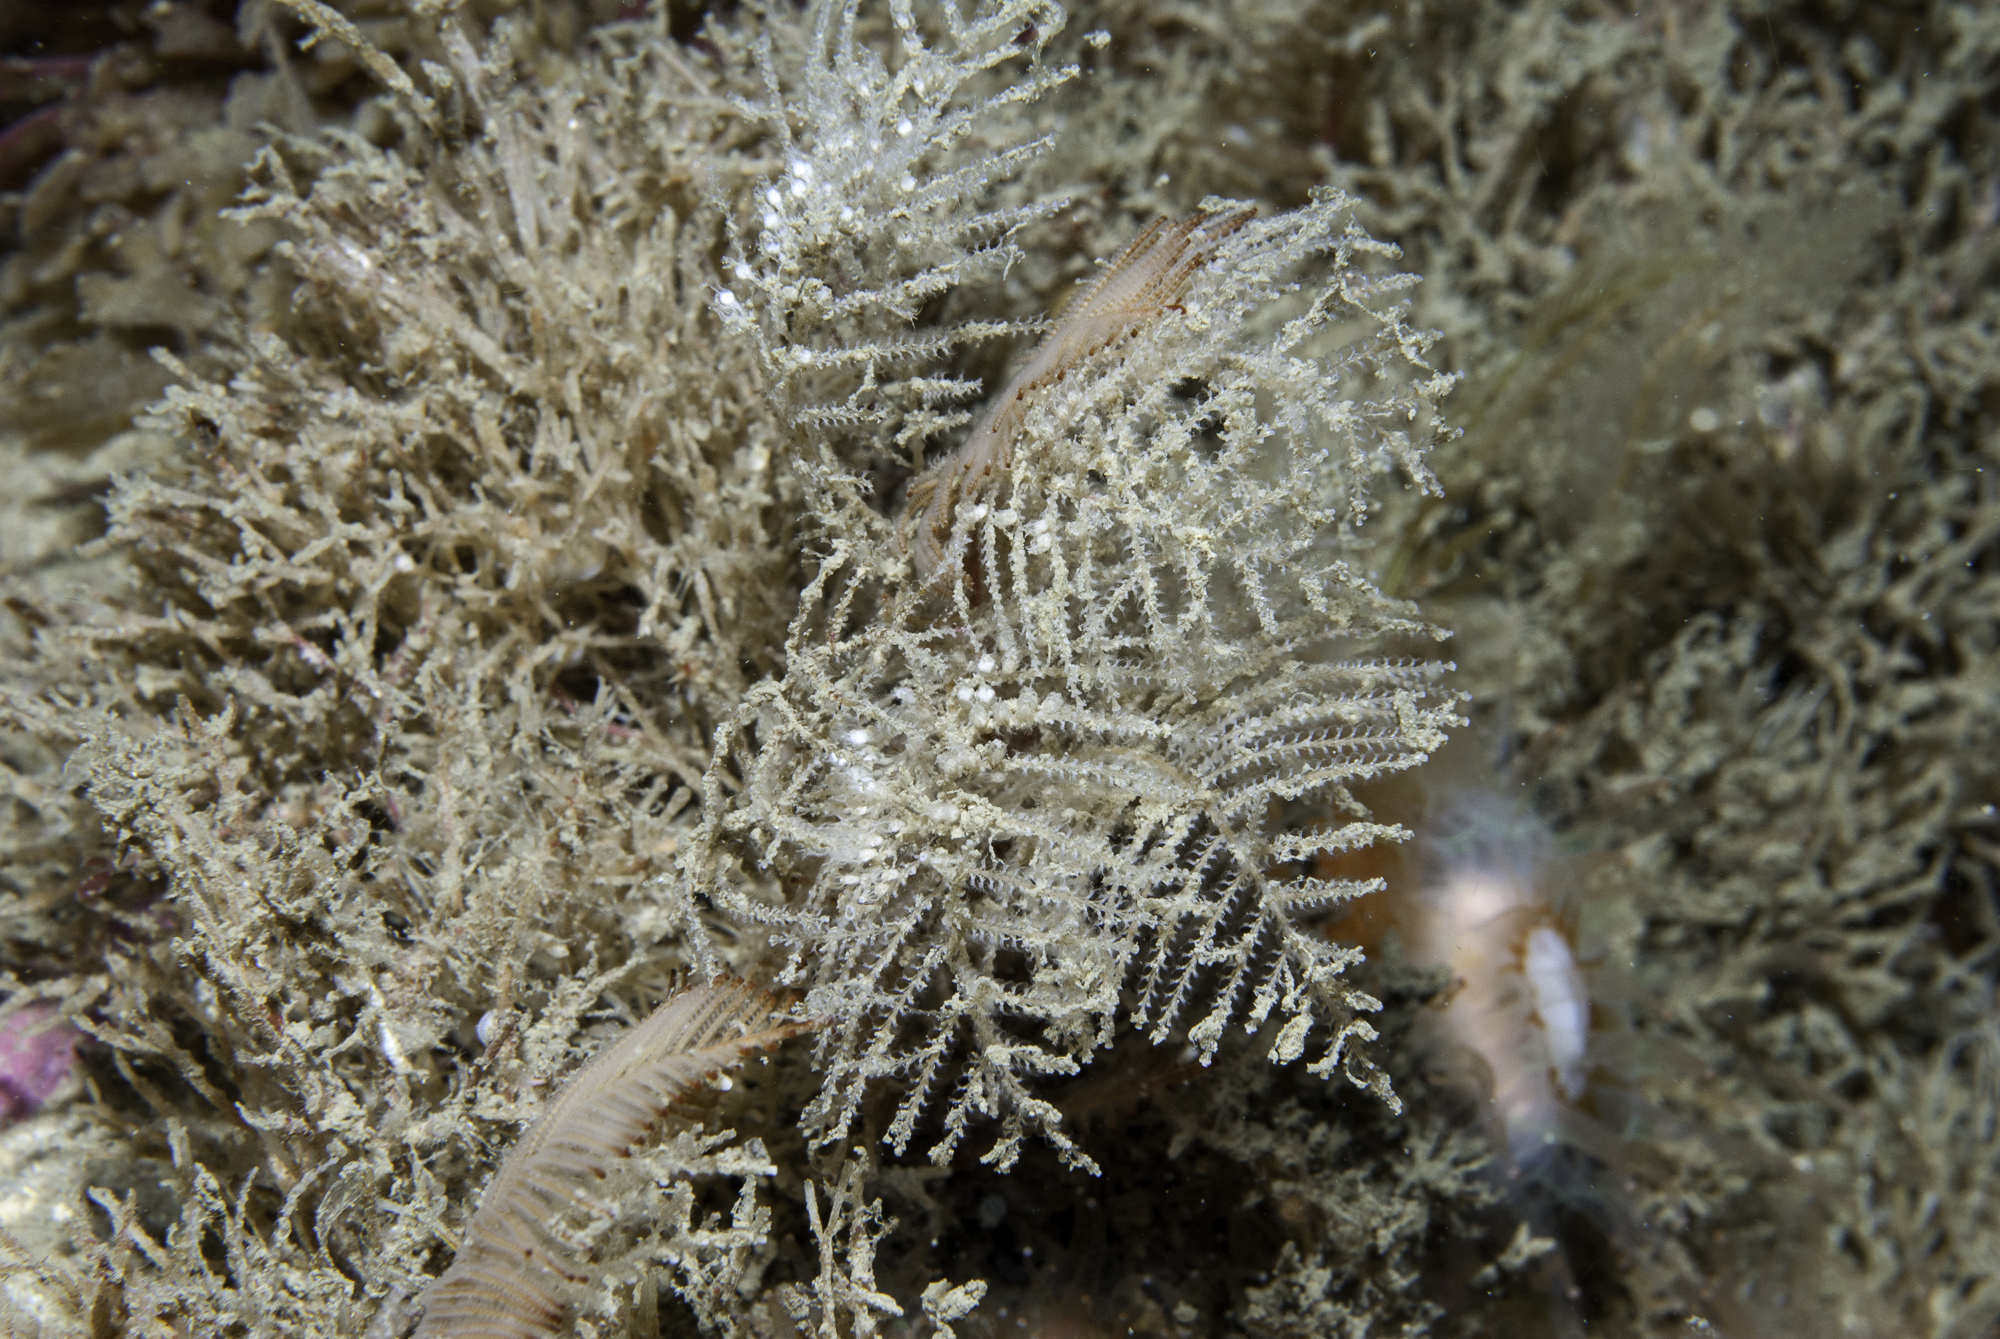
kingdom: Animalia
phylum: Cnidaria
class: Hydrozoa
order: Leptothecata
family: Sertulariidae
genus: Diphasia
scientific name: Diphasia fallax
